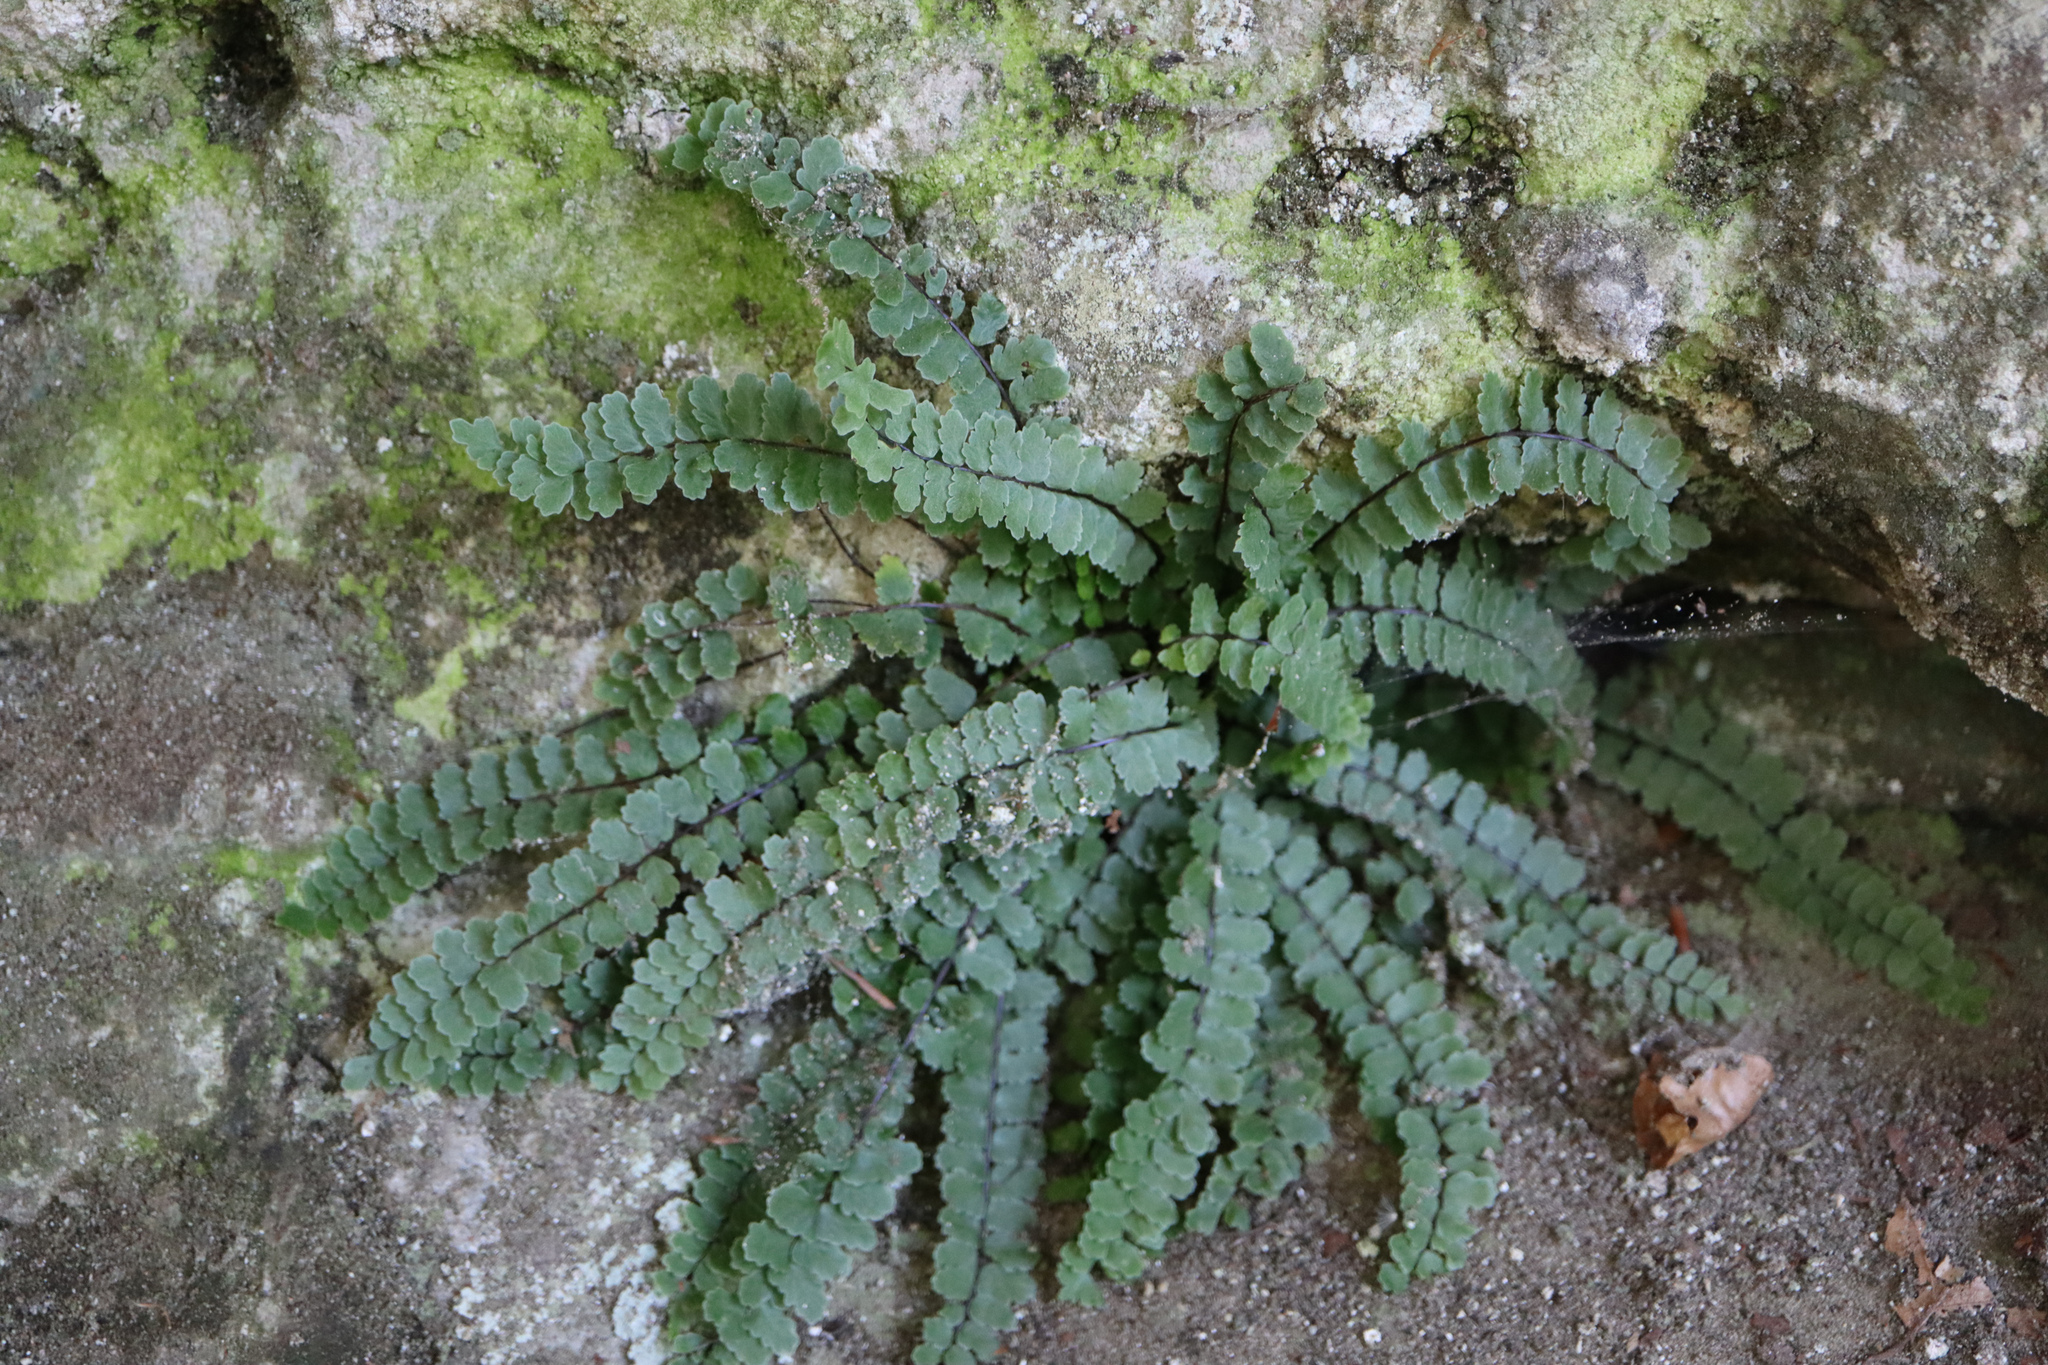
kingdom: Plantae
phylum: Tracheophyta
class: Polypodiopsida
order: Polypodiales
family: Aspleniaceae
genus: Asplenium
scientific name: Asplenium trichomanes
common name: Maidenhair spleenwort
